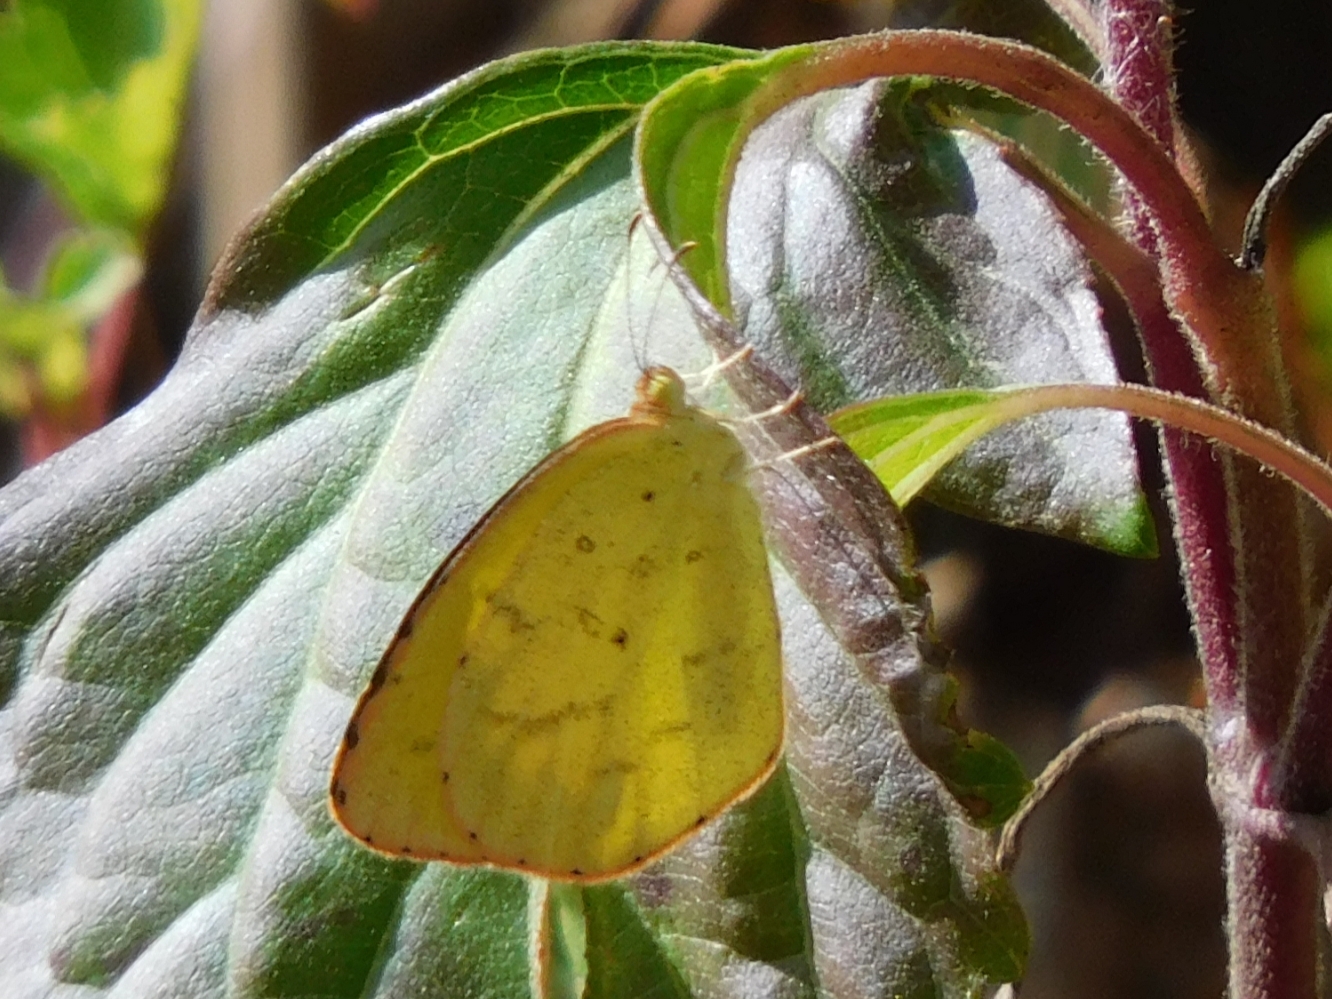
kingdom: Animalia
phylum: Arthropoda
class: Insecta
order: Lepidoptera
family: Pieridae
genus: Eurema
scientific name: Eurema brigitta
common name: Small grass yellow
